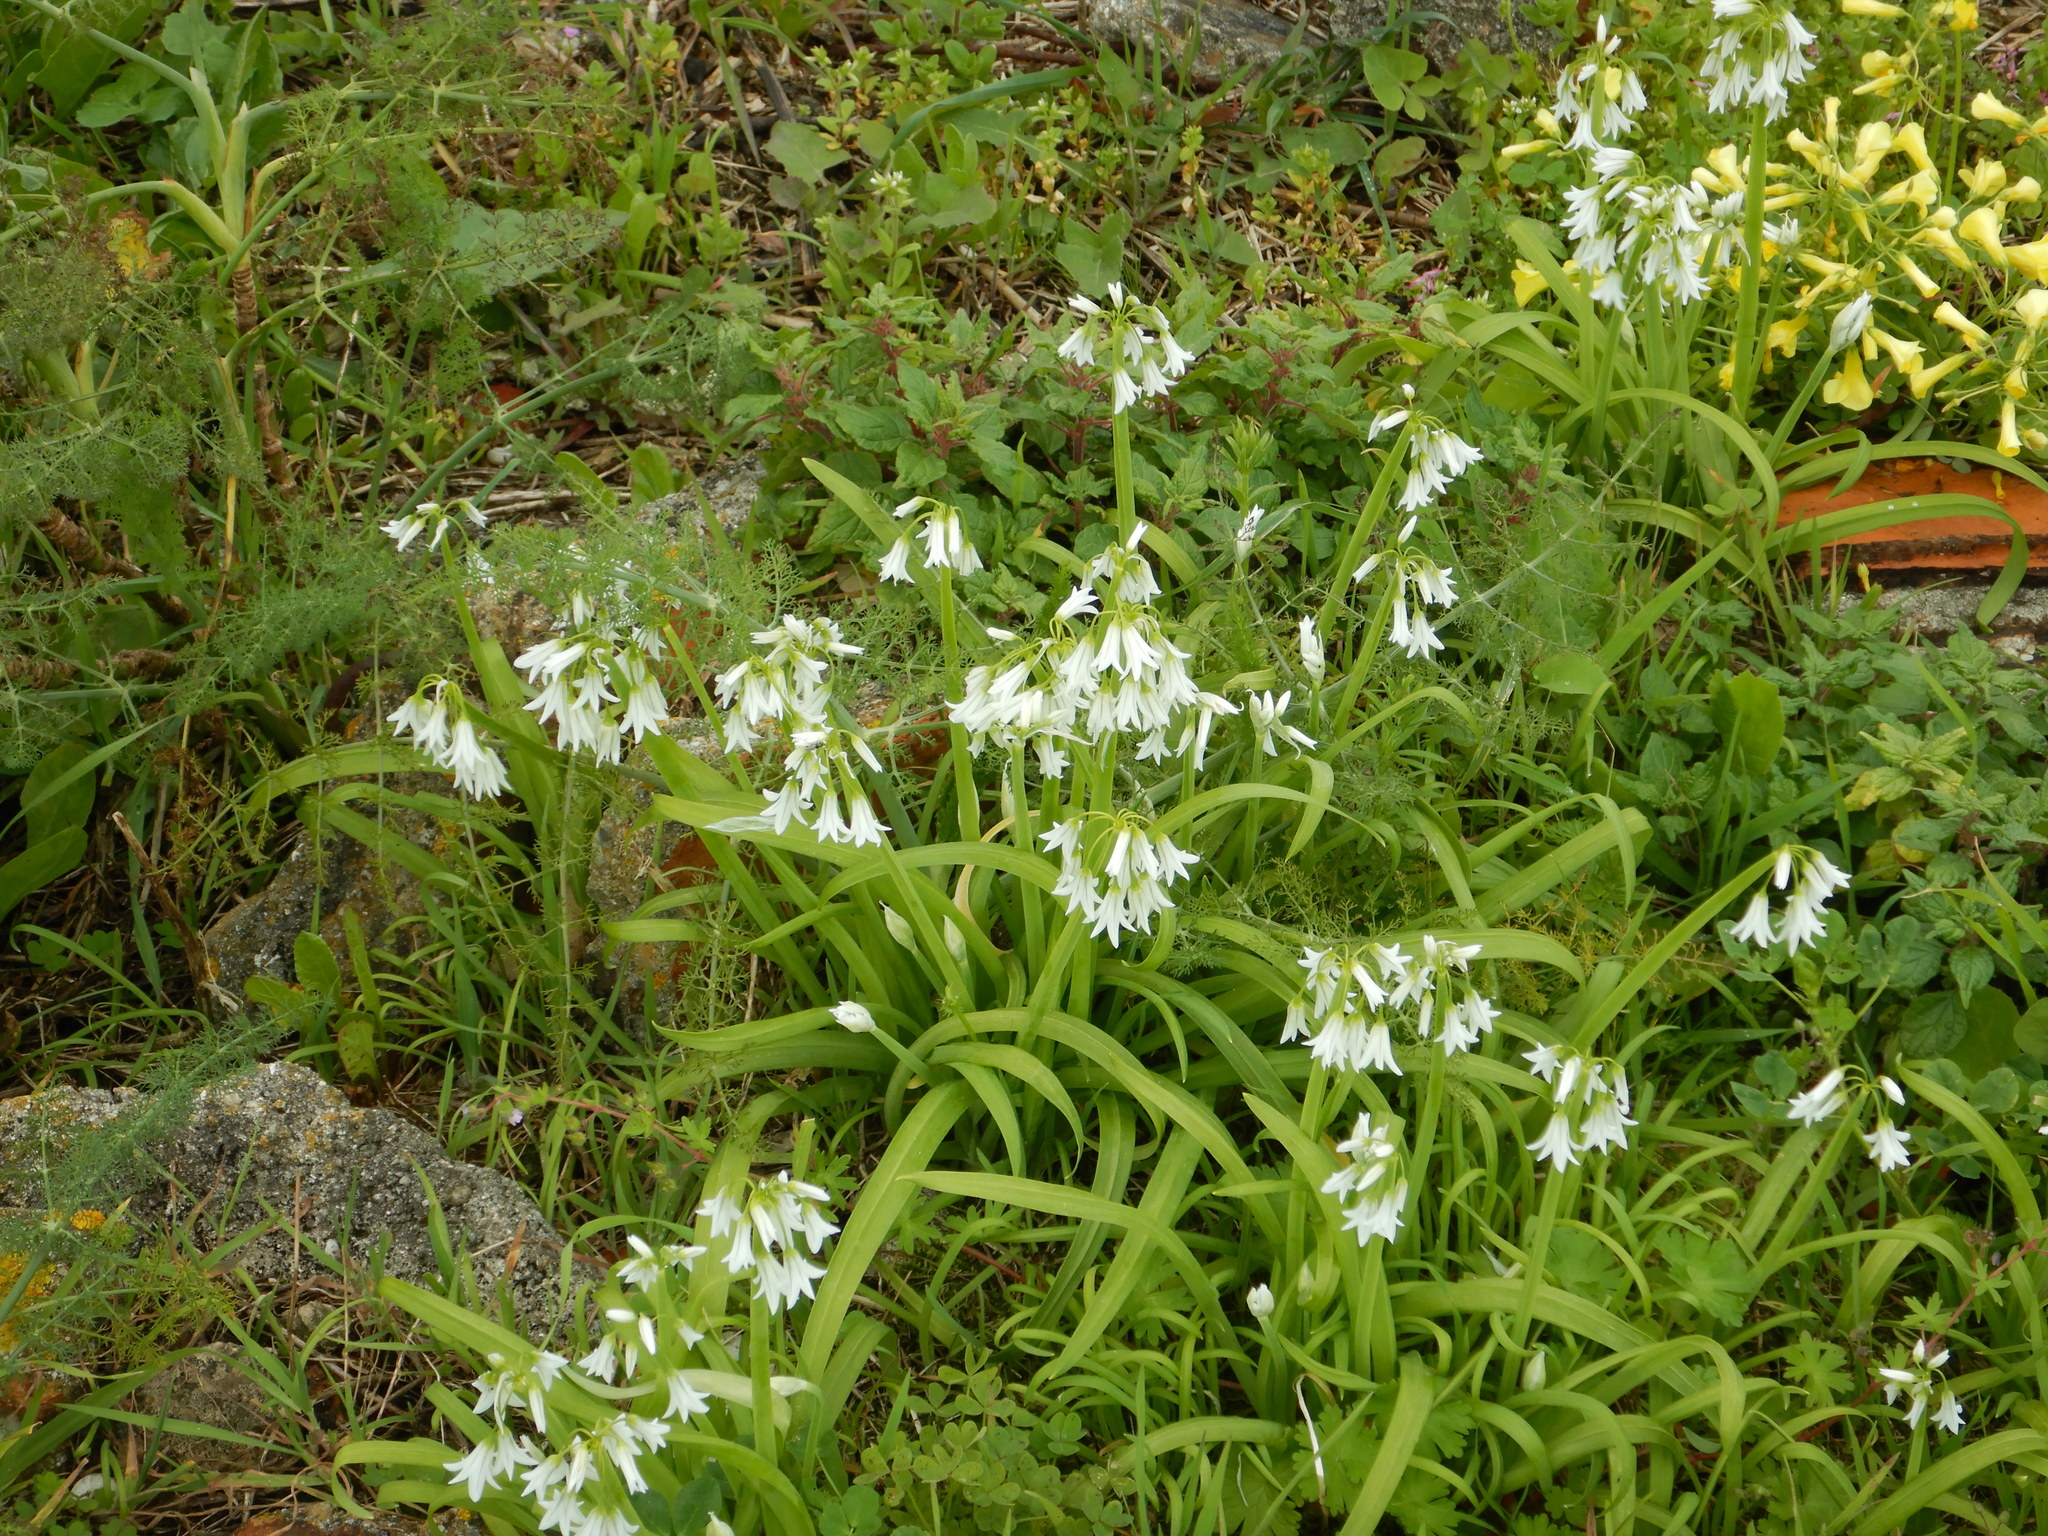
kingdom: Plantae
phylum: Tracheophyta
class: Liliopsida
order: Asparagales
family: Amaryllidaceae
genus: Allium
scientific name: Allium triquetrum
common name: Three-cornered garlic
